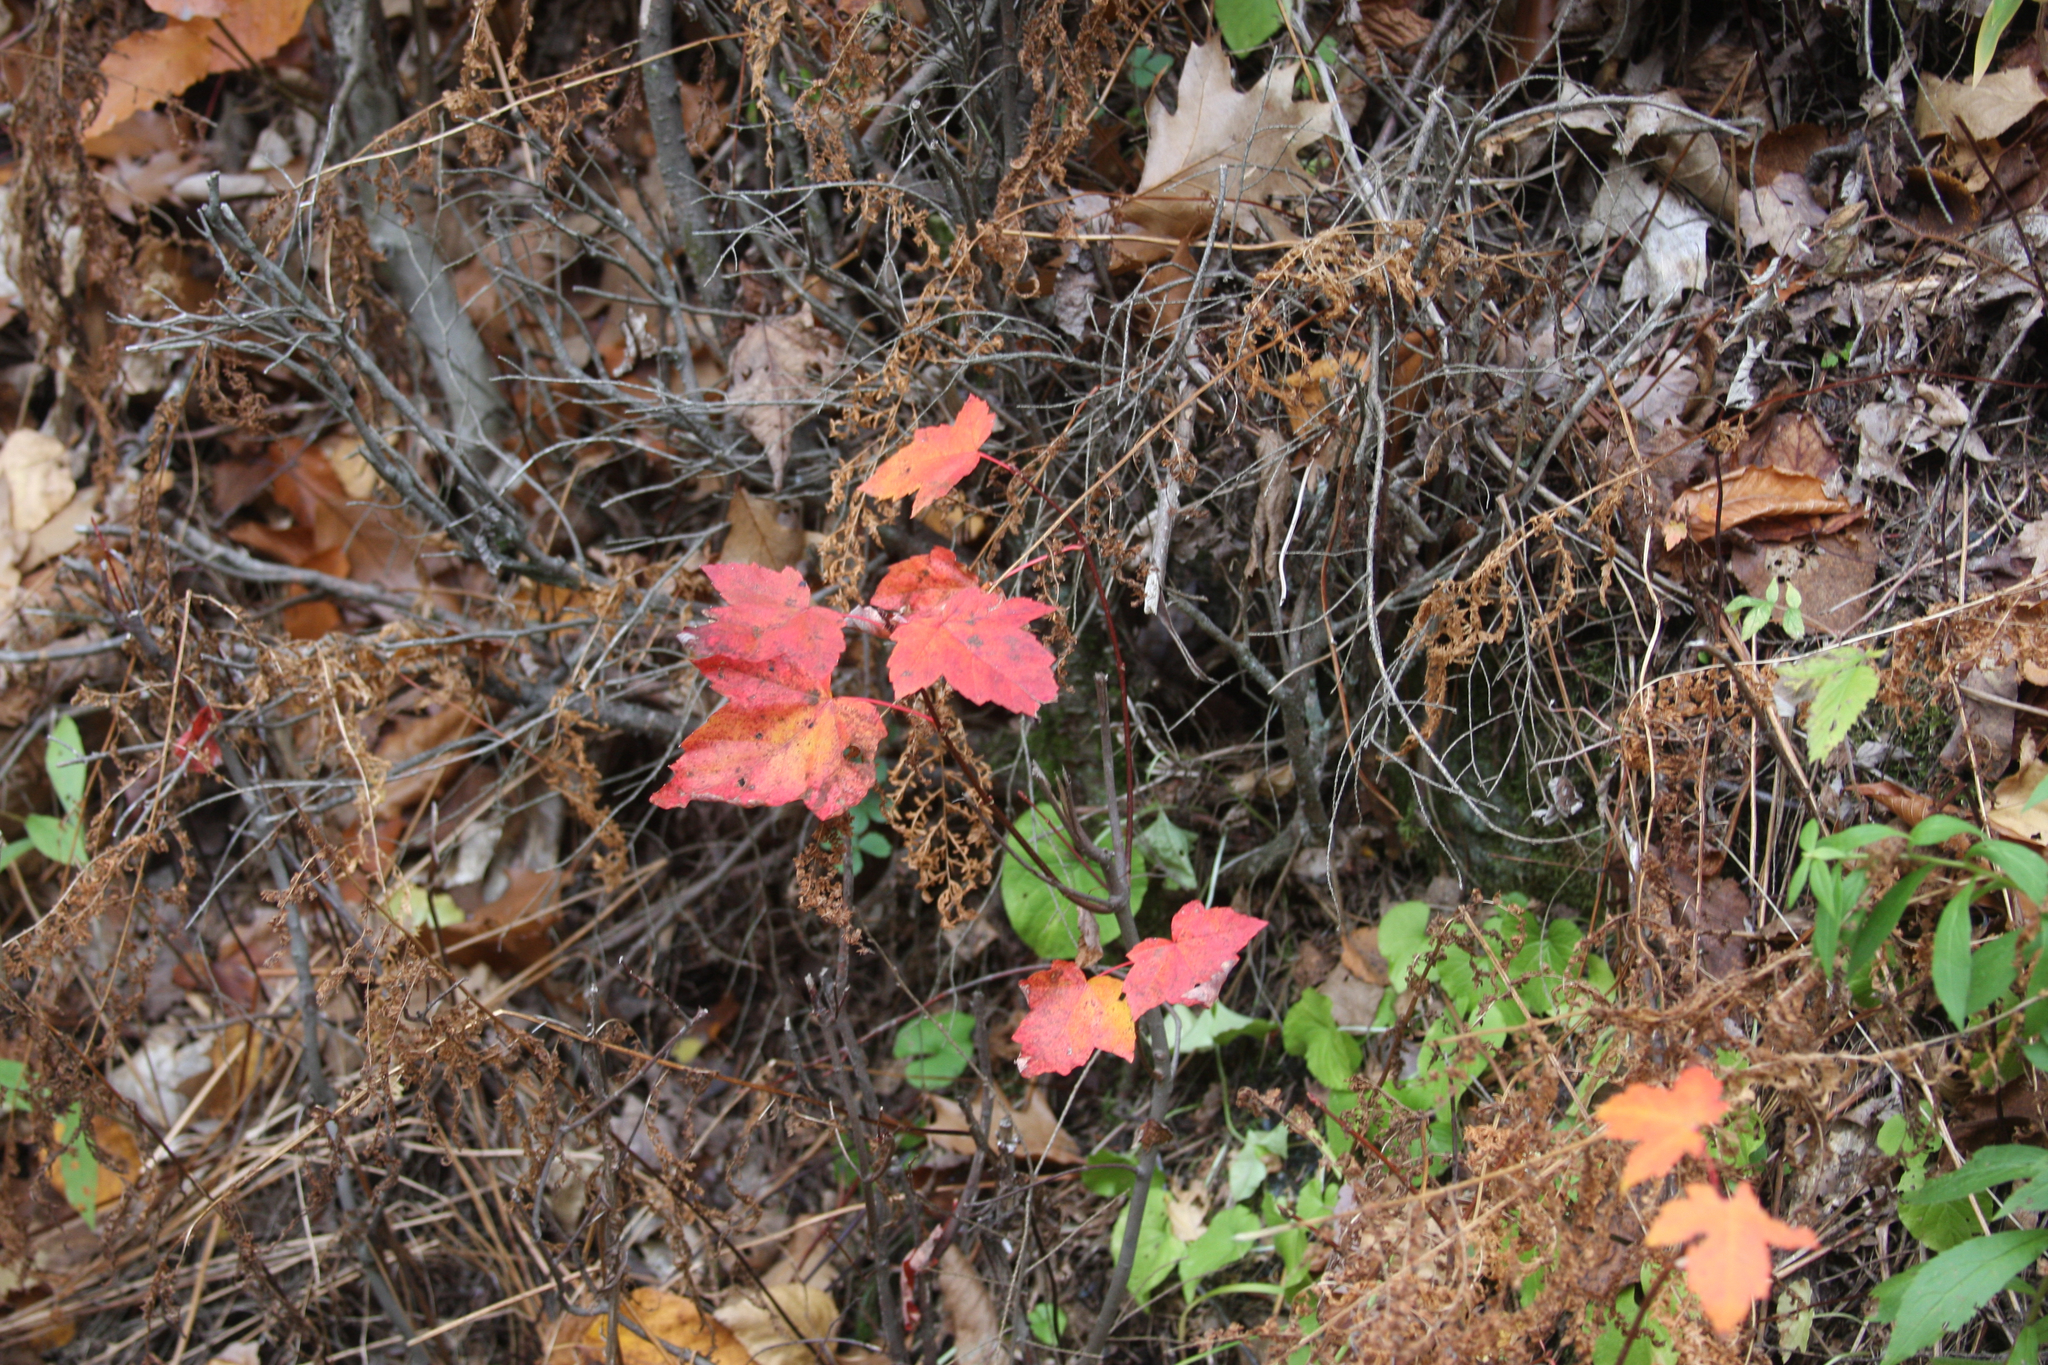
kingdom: Plantae
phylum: Tracheophyta
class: Magnoliopsida
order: Sapindales
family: Sapindaceae
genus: Acer
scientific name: Acer rubrum
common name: Red maple
